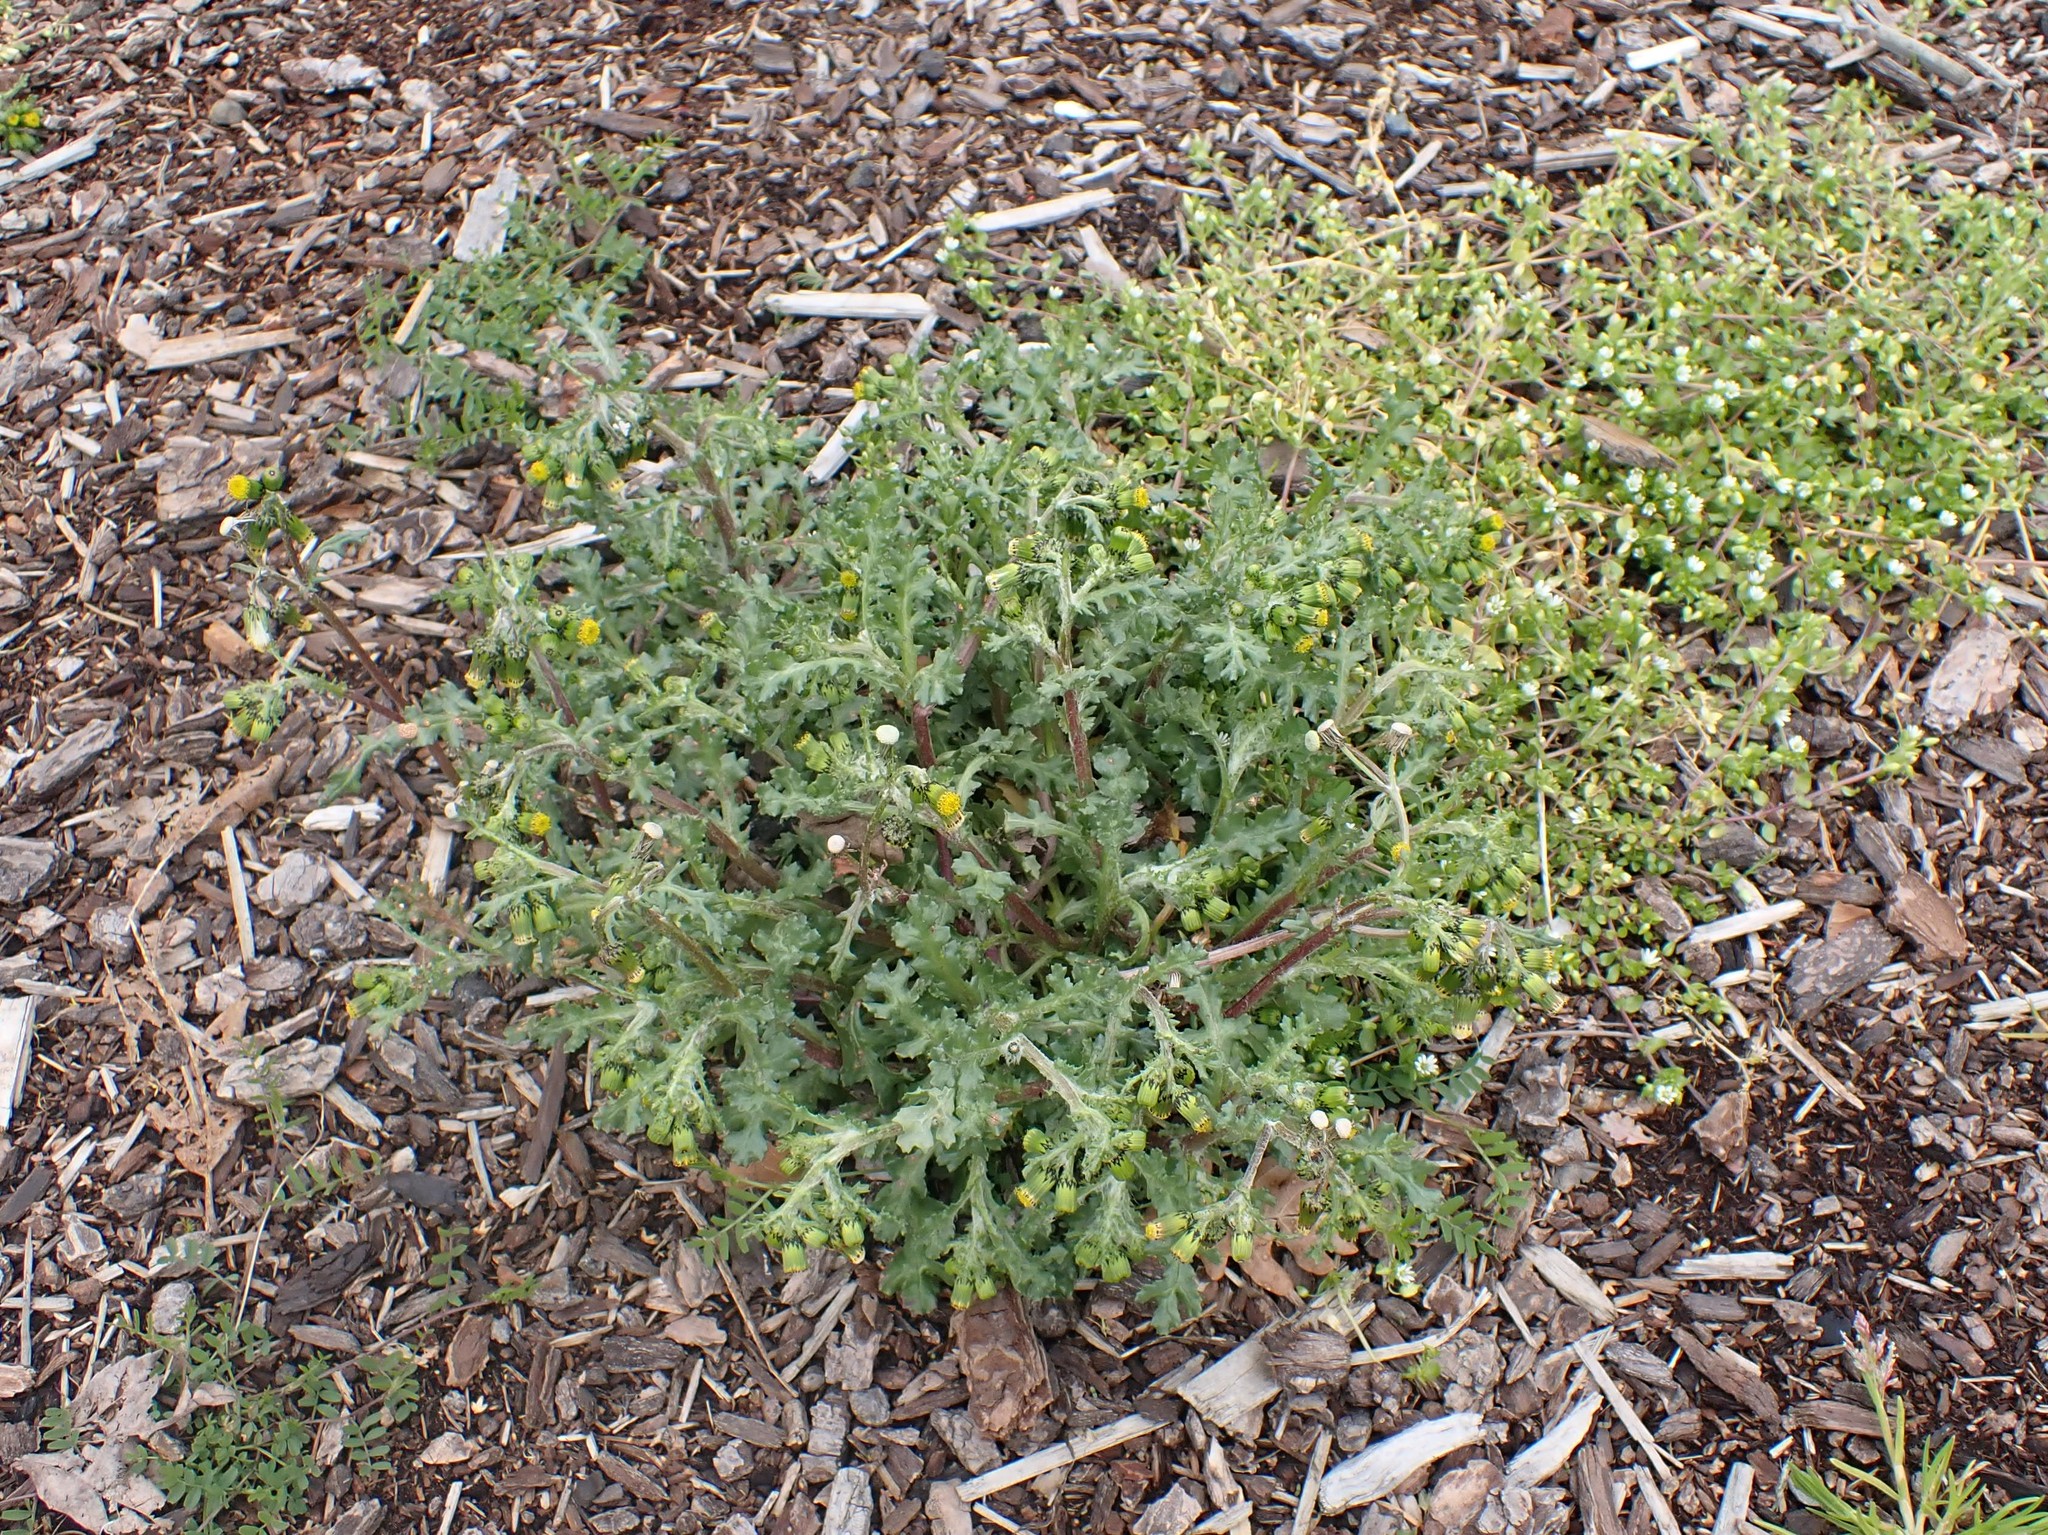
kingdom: Plantae
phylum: Tracheophyta
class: Magnoliopsida
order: Asterales
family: Asteraceae
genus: Senecio
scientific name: Senecio vulgaris
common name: Old-man-in-the-spring
